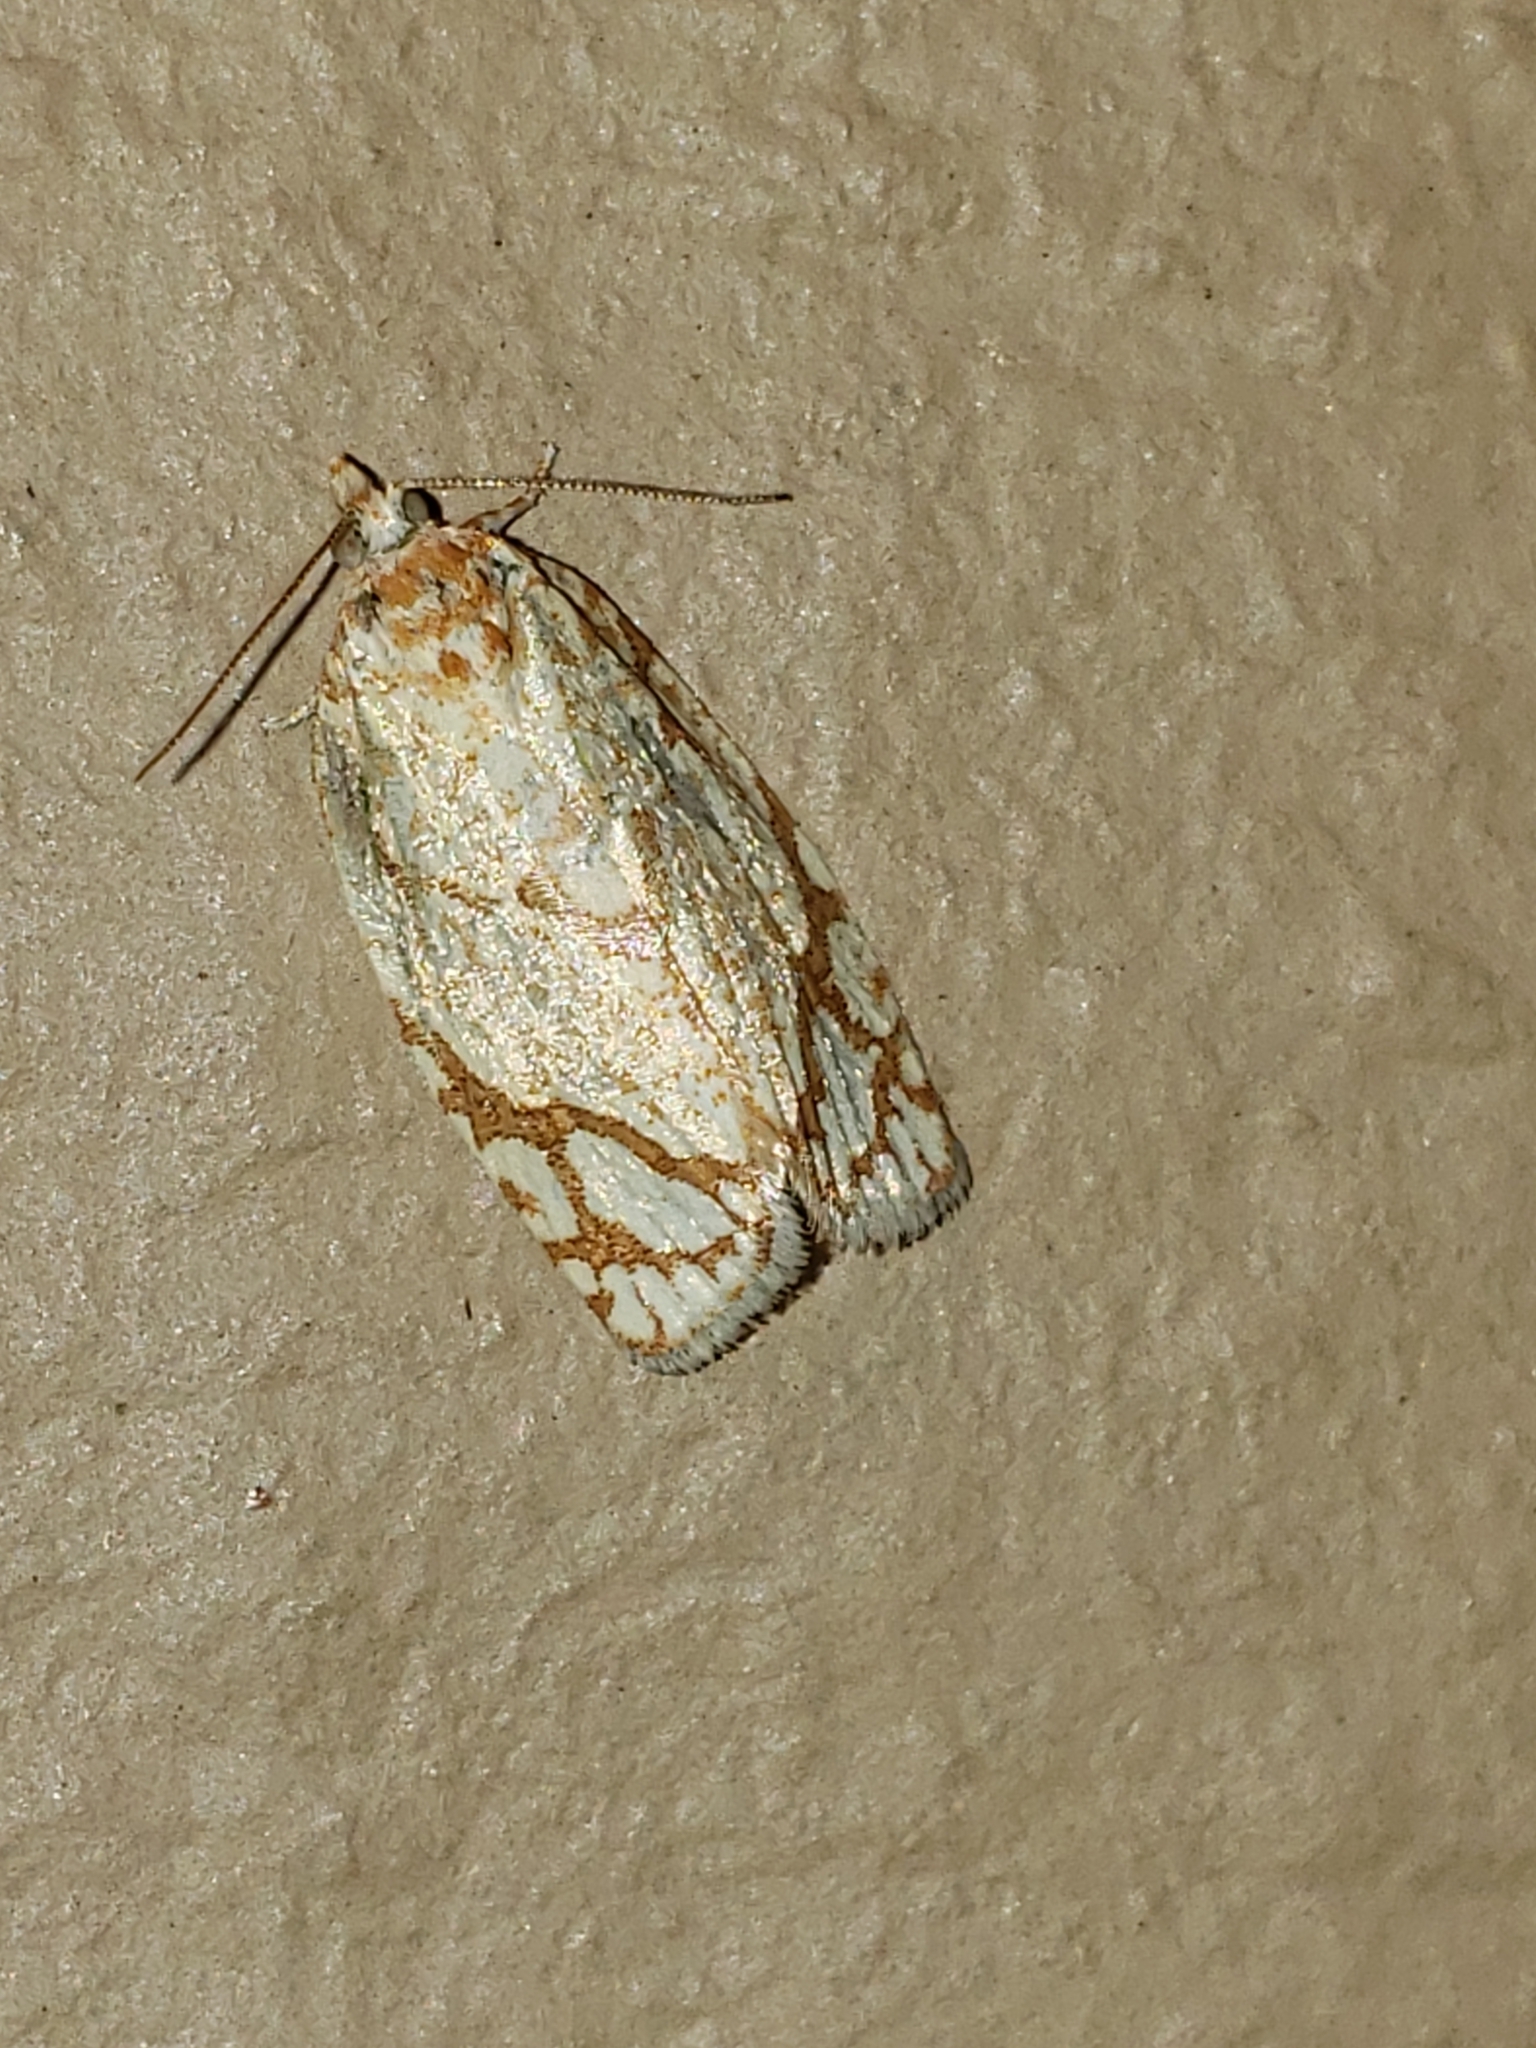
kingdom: Animalia
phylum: Arthropoda
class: Insecta
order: Lepidoptera
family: Tortricidae
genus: Argyrotaenia
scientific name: Argyrotaenia quercifoliana
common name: Yellow-winged oak leafroller moth
